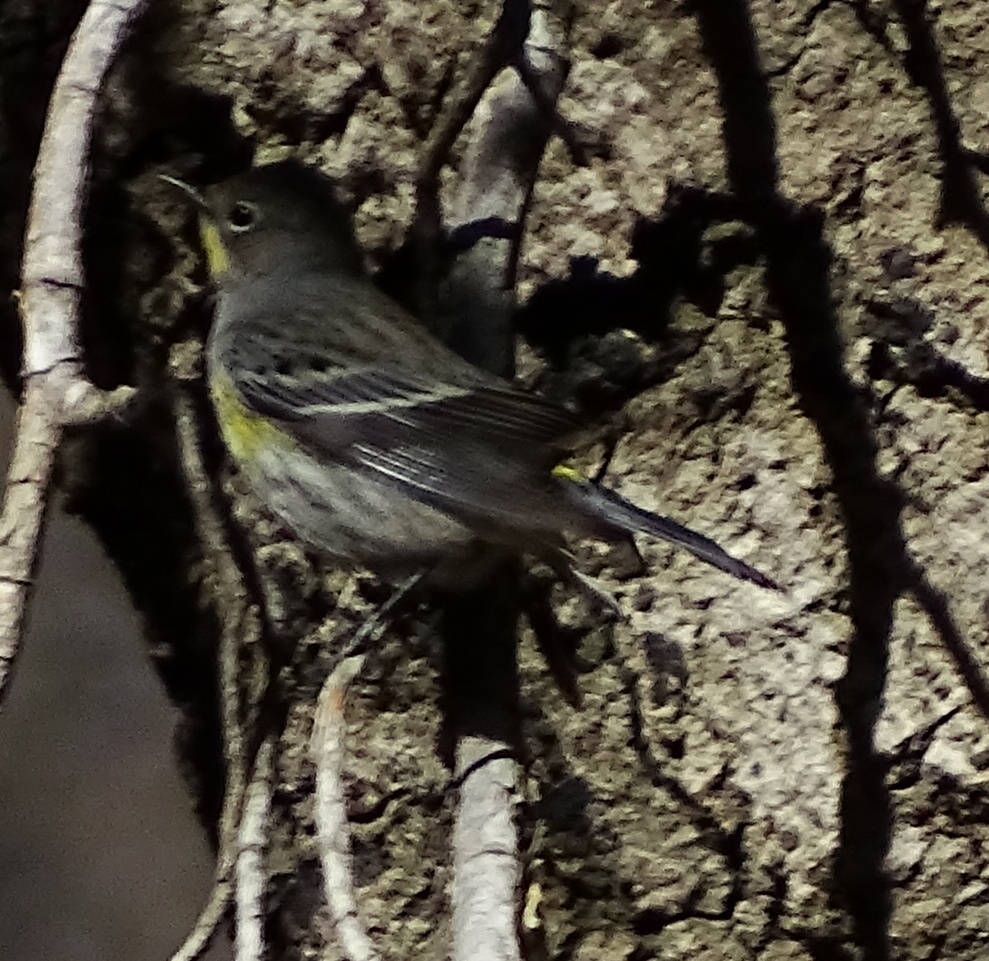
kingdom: Animalia
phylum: Chordata
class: Aves
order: Passeriformes
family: Parulidae
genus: Setophaga
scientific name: Setophaga auduboni
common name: Audubon's warbler
